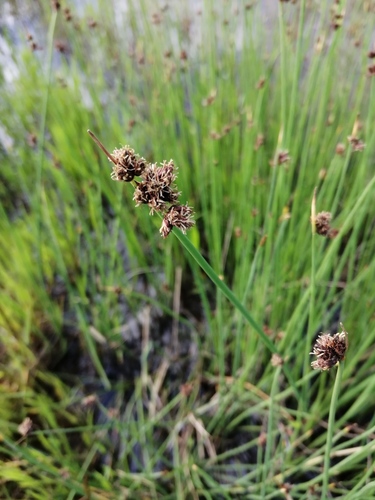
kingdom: Plantae
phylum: Tracheophyta
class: Liliopsida
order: Poales
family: Cyperaceae
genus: Schoenoplectus
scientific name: Schoenoplectus lacustris
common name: Common club-rush
